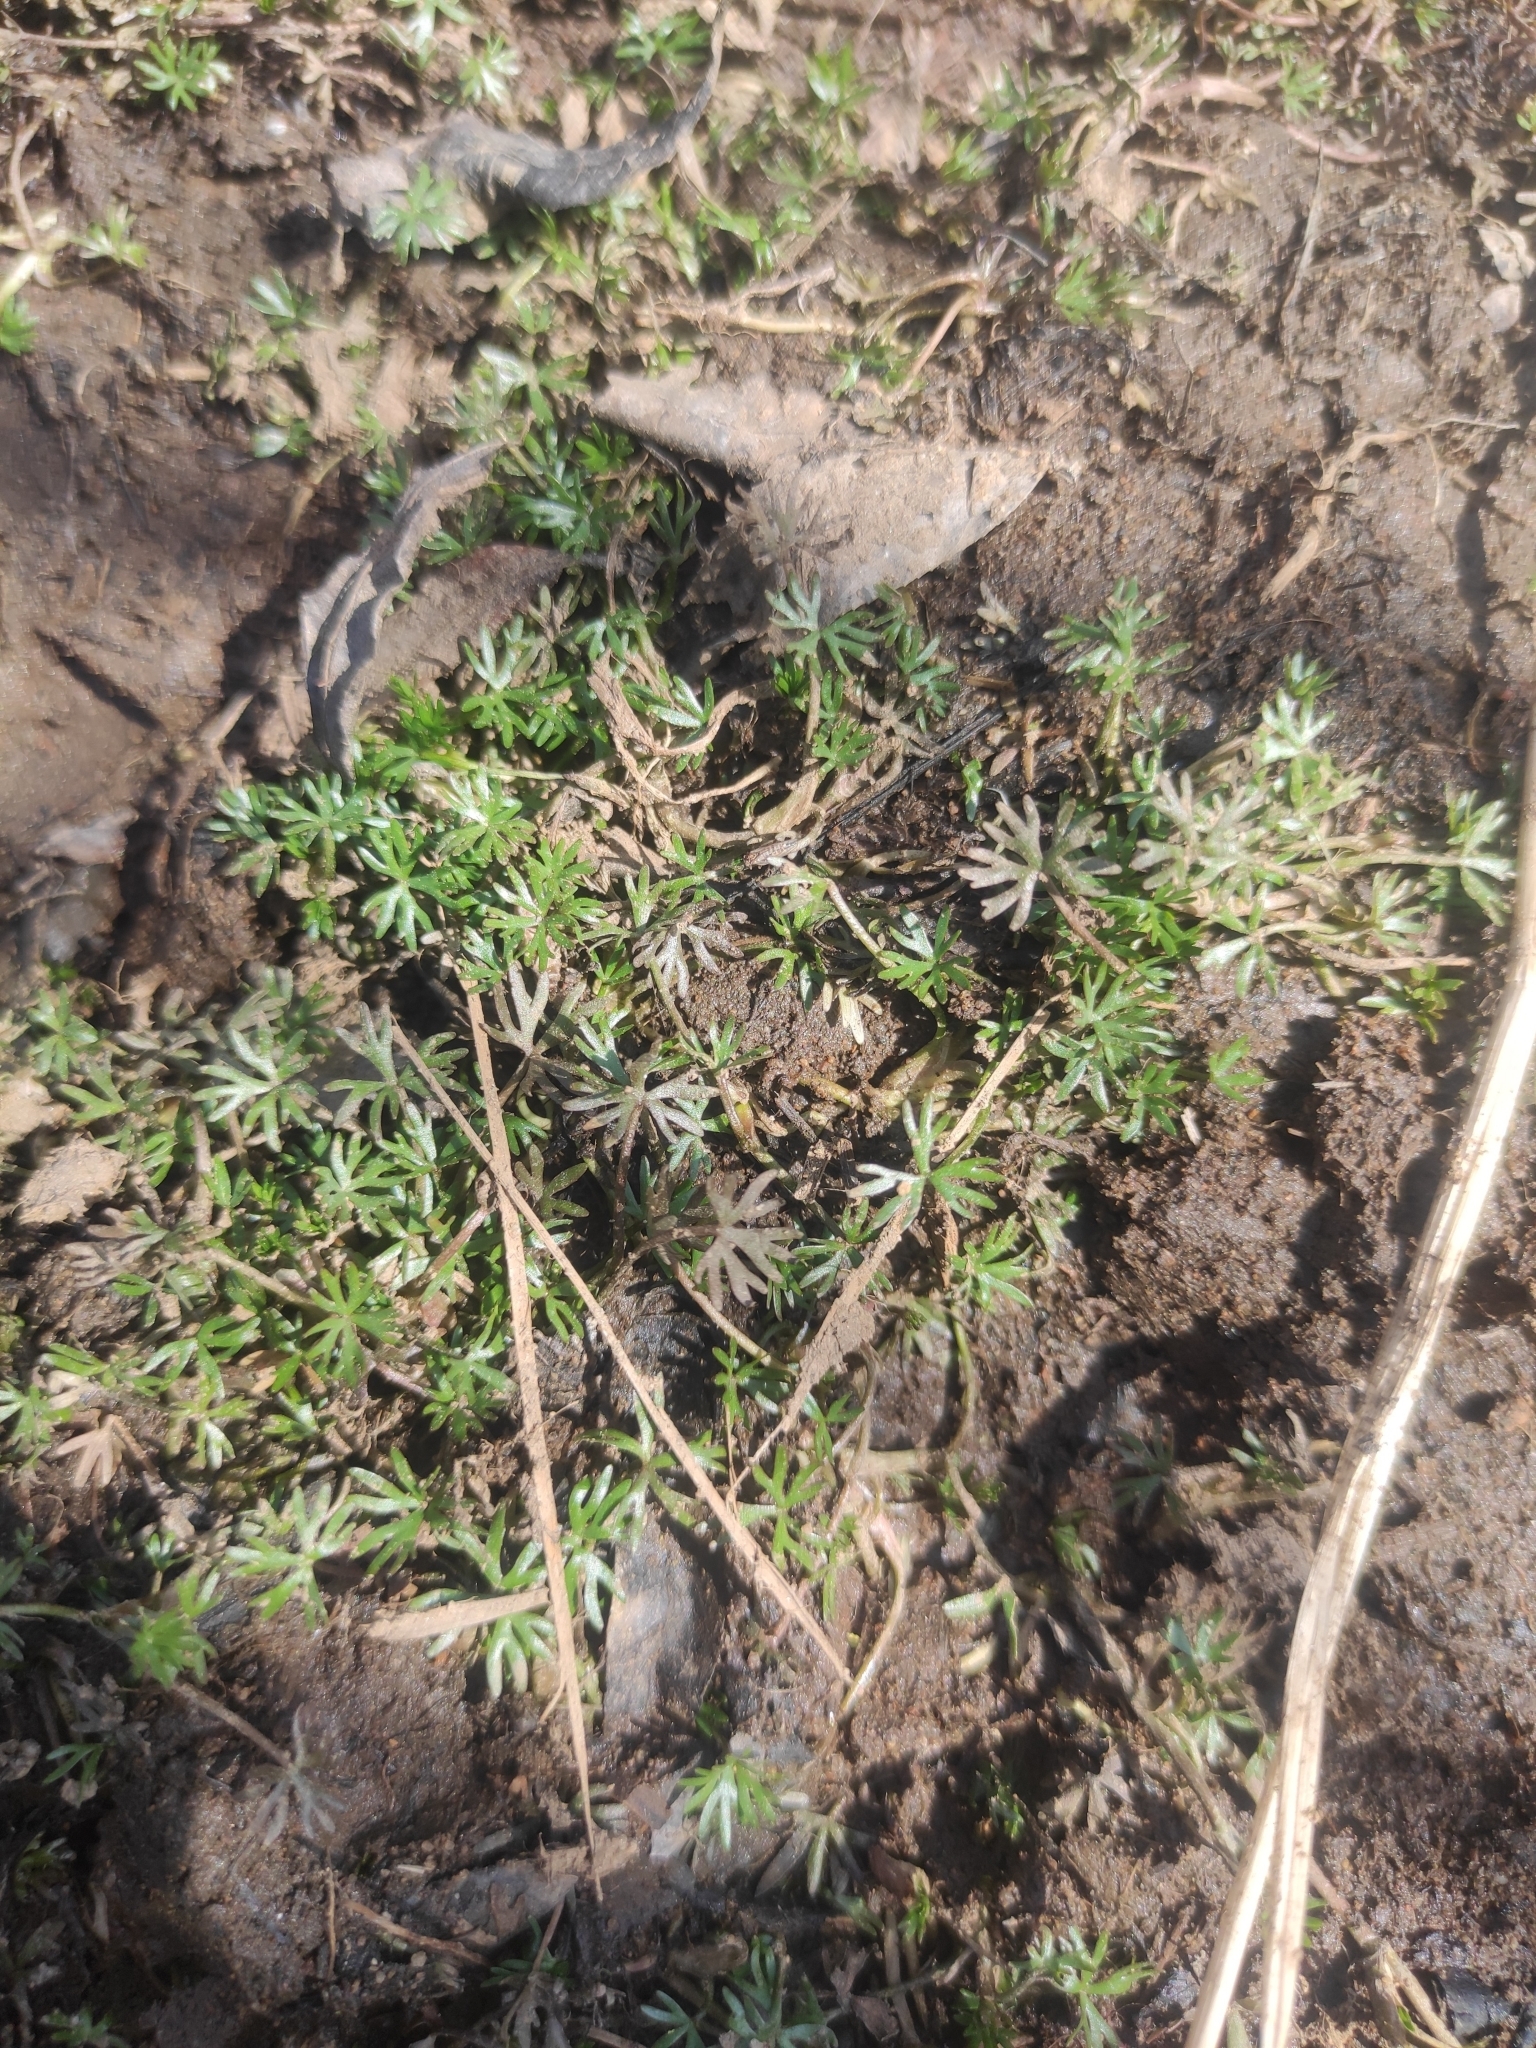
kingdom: Plantae
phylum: Tracheophyta
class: Magnoliopsida
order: Ranunculales
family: Ranunculaceae
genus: Ranunculus
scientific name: Ranunculus gmelinii
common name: Gmelin's buttercup
